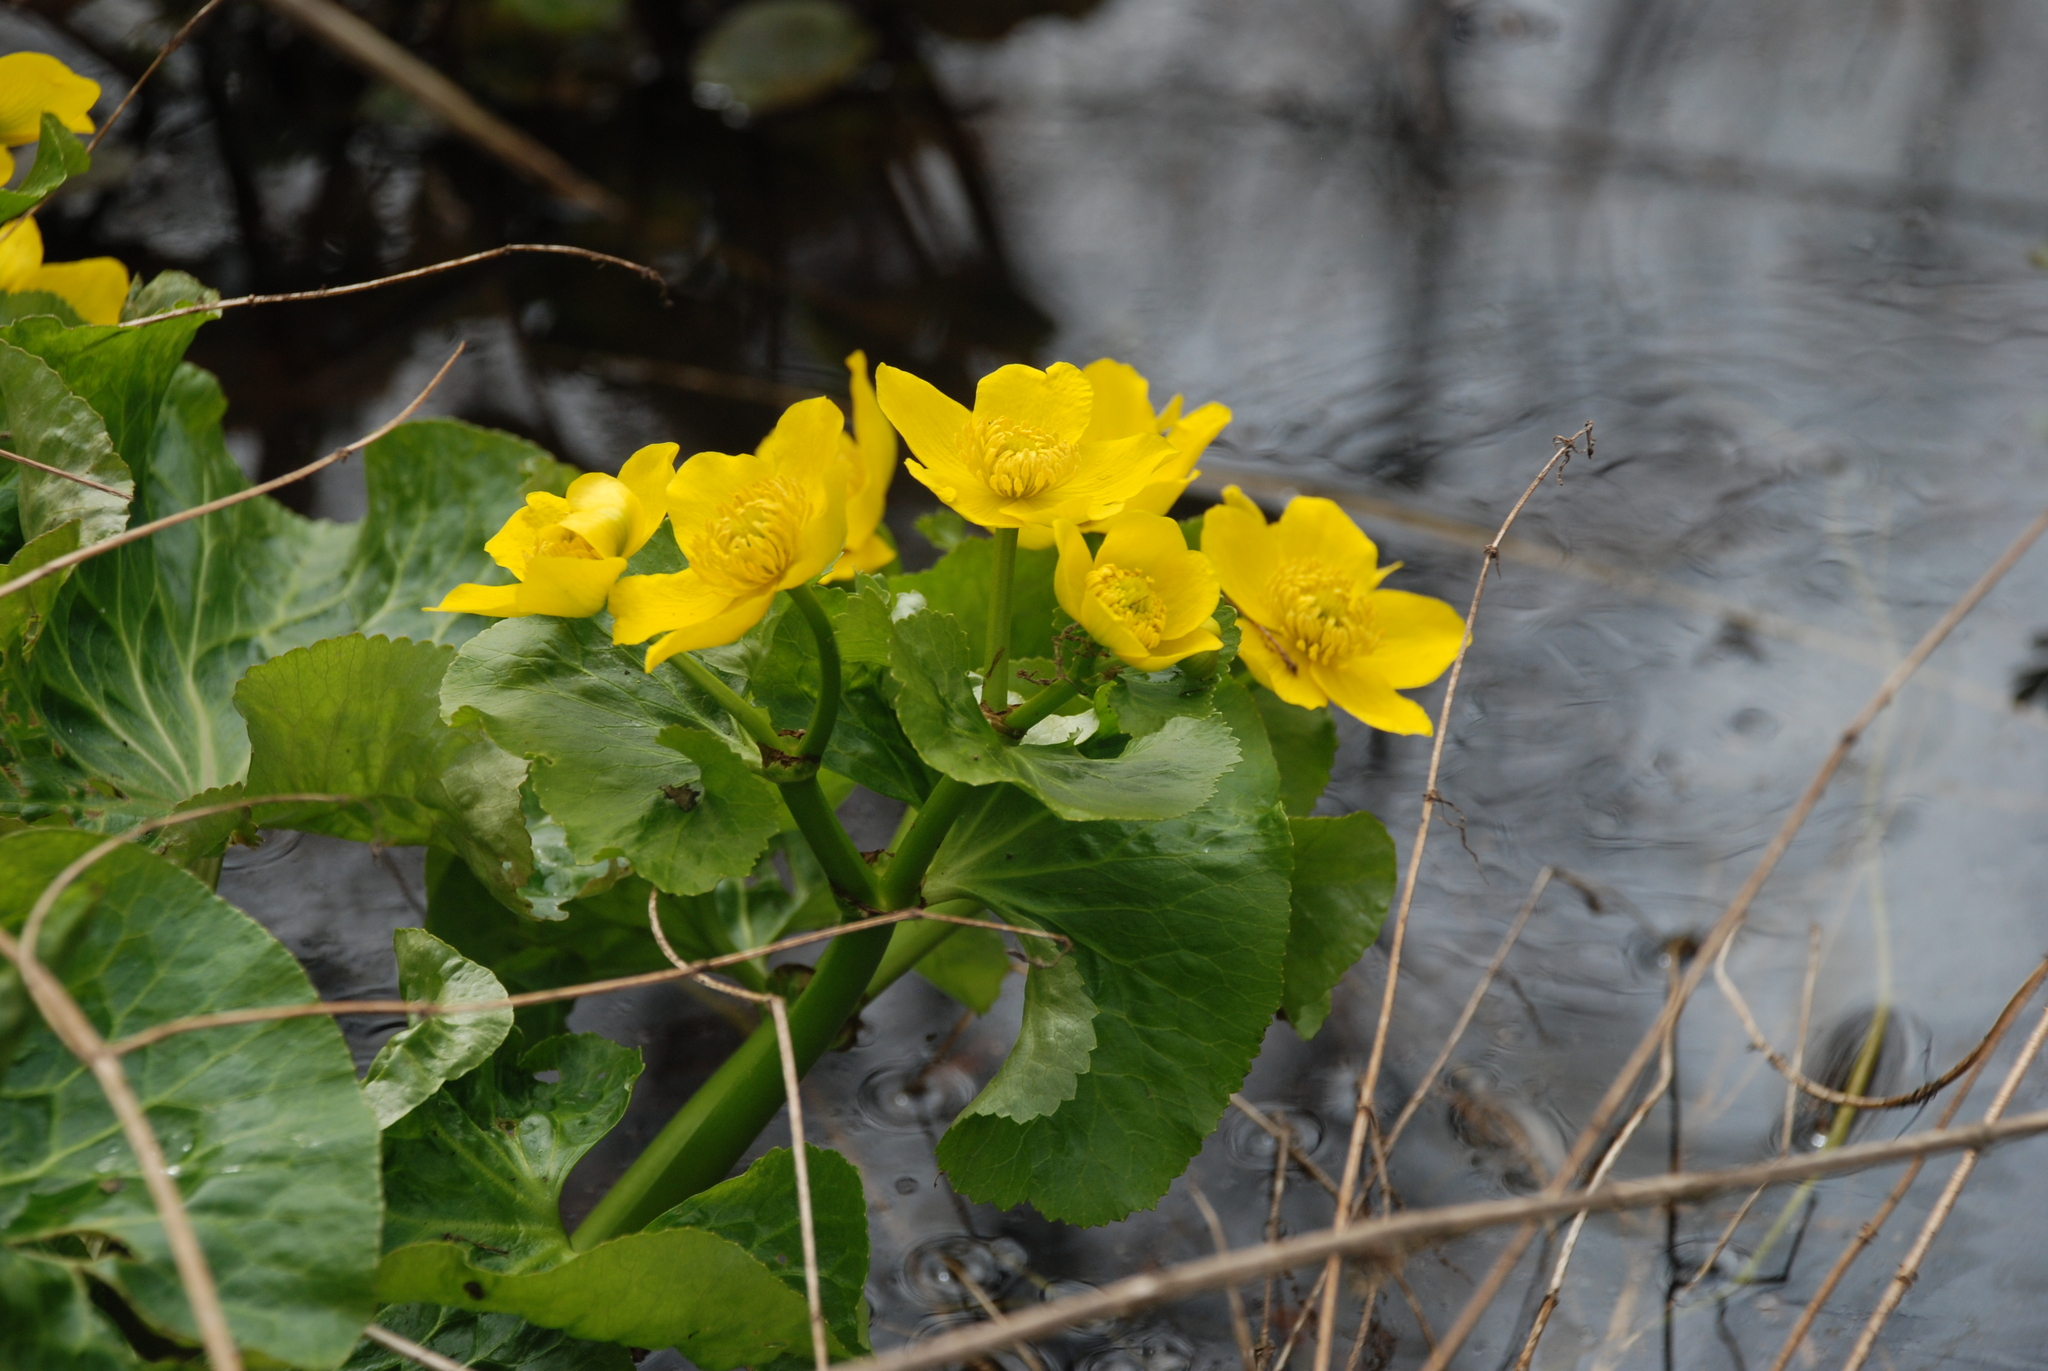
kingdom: Plantae
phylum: Tracheophyta
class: Magnoliopsida
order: Ranunculales
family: Ranunculaceae
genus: Caltha
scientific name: Caltha palustris
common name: Marsh marigold
